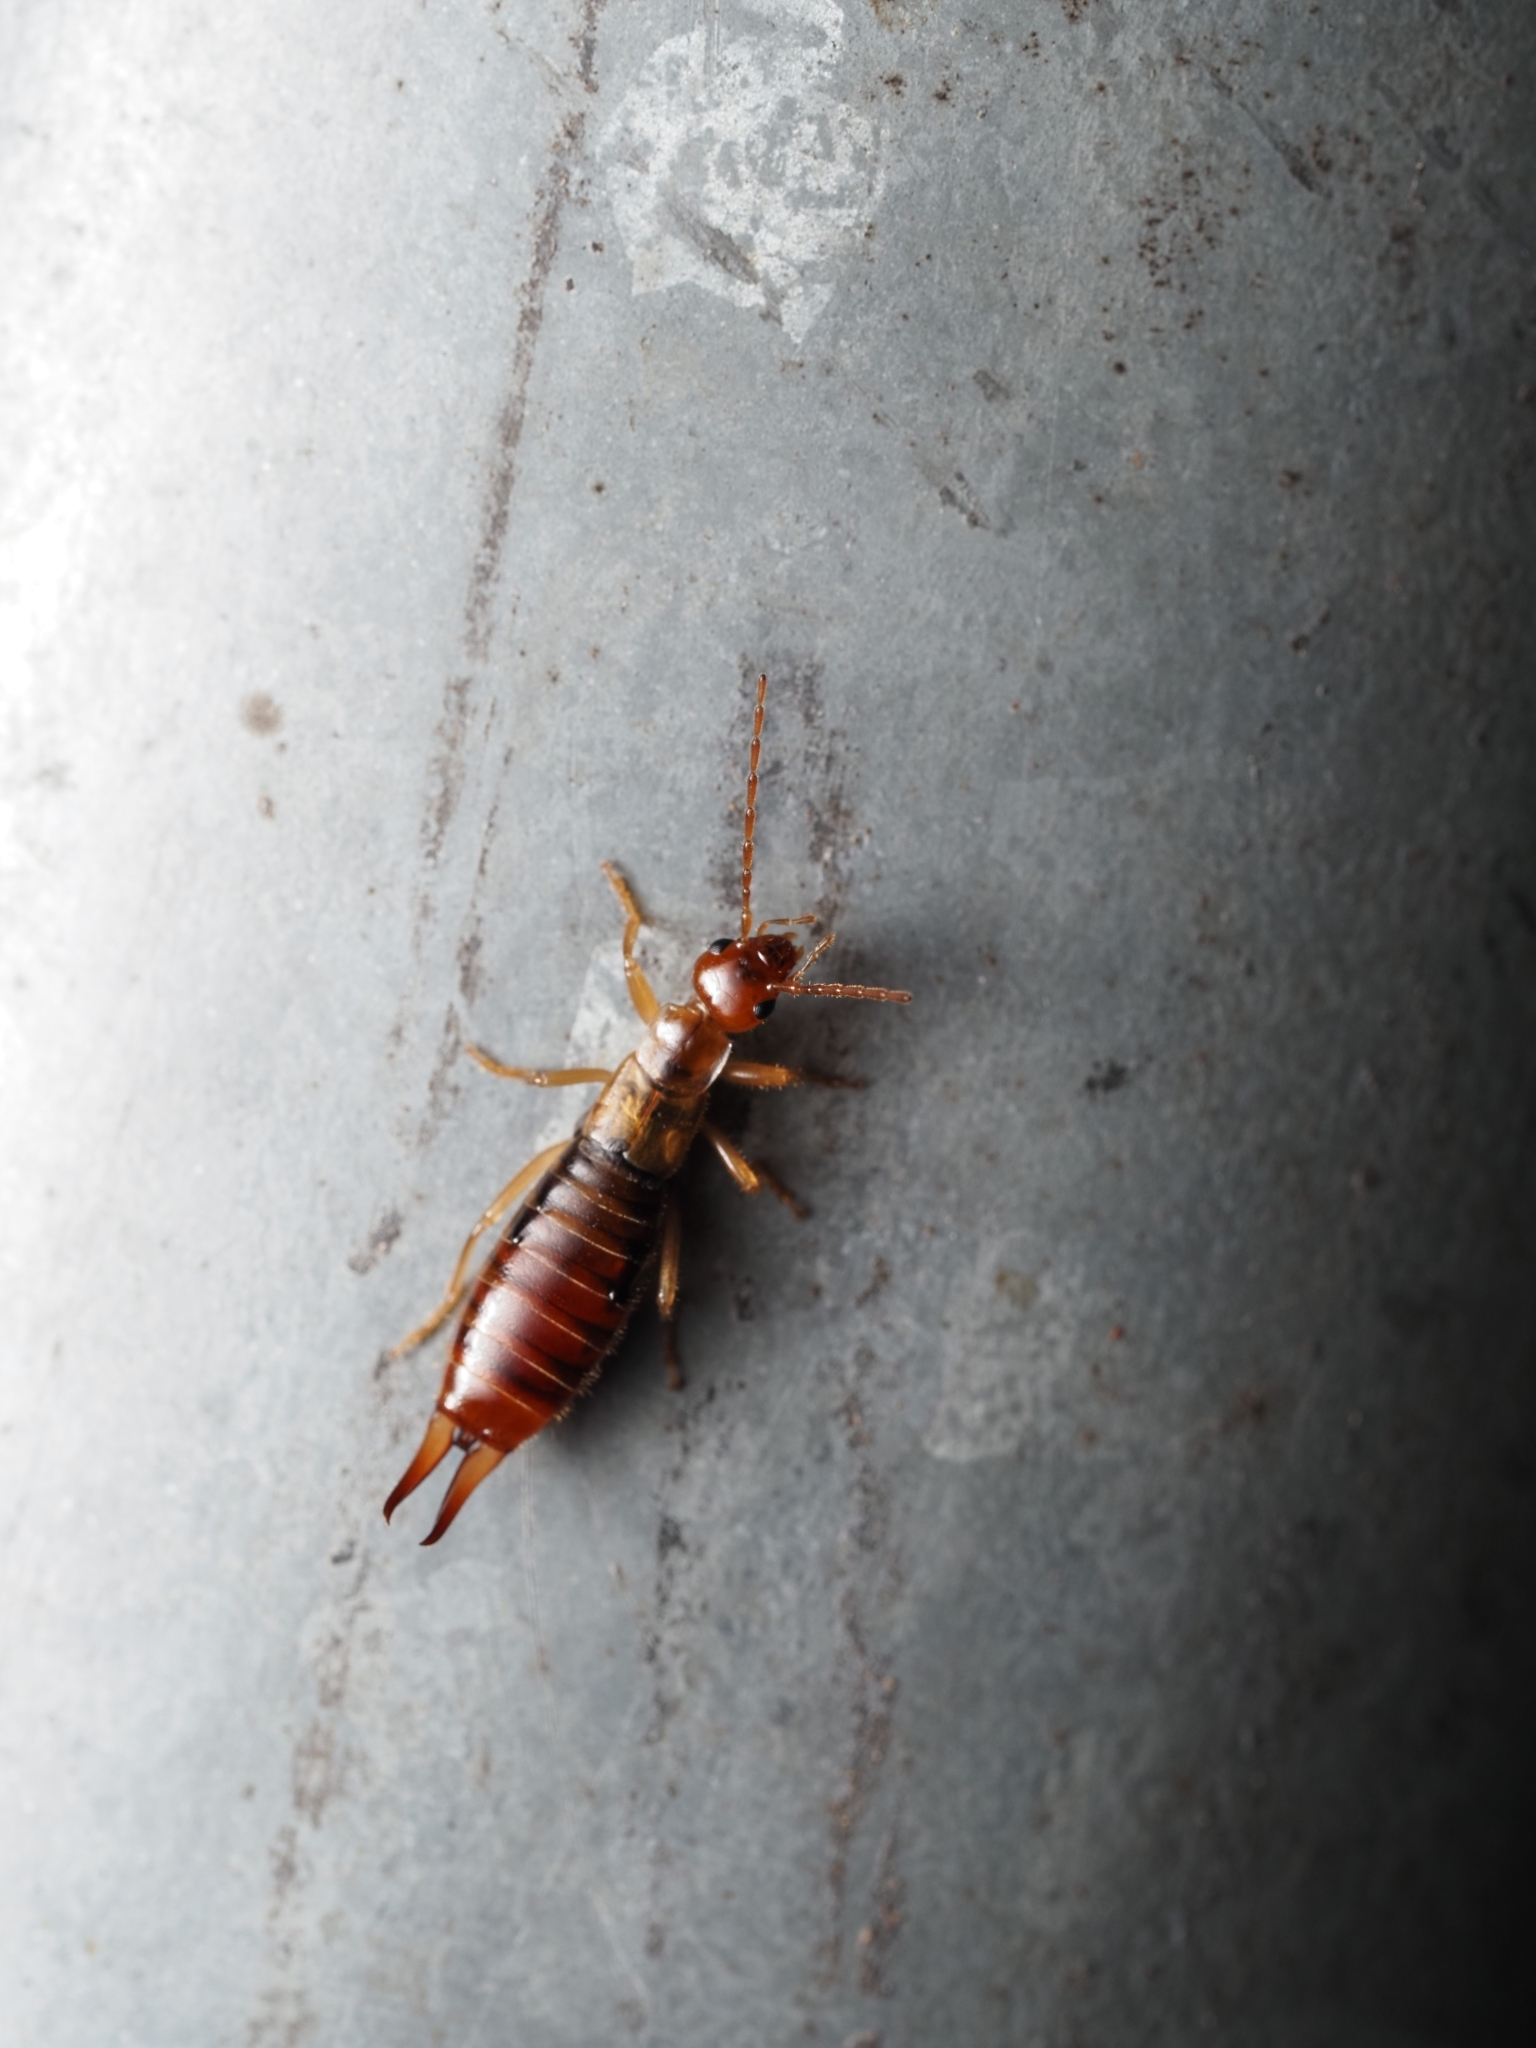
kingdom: Animalia
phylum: Arthropoda
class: Insecta
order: Dermaptera
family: Forficulidae
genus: Apterygida
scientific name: Apterygida albipennis
